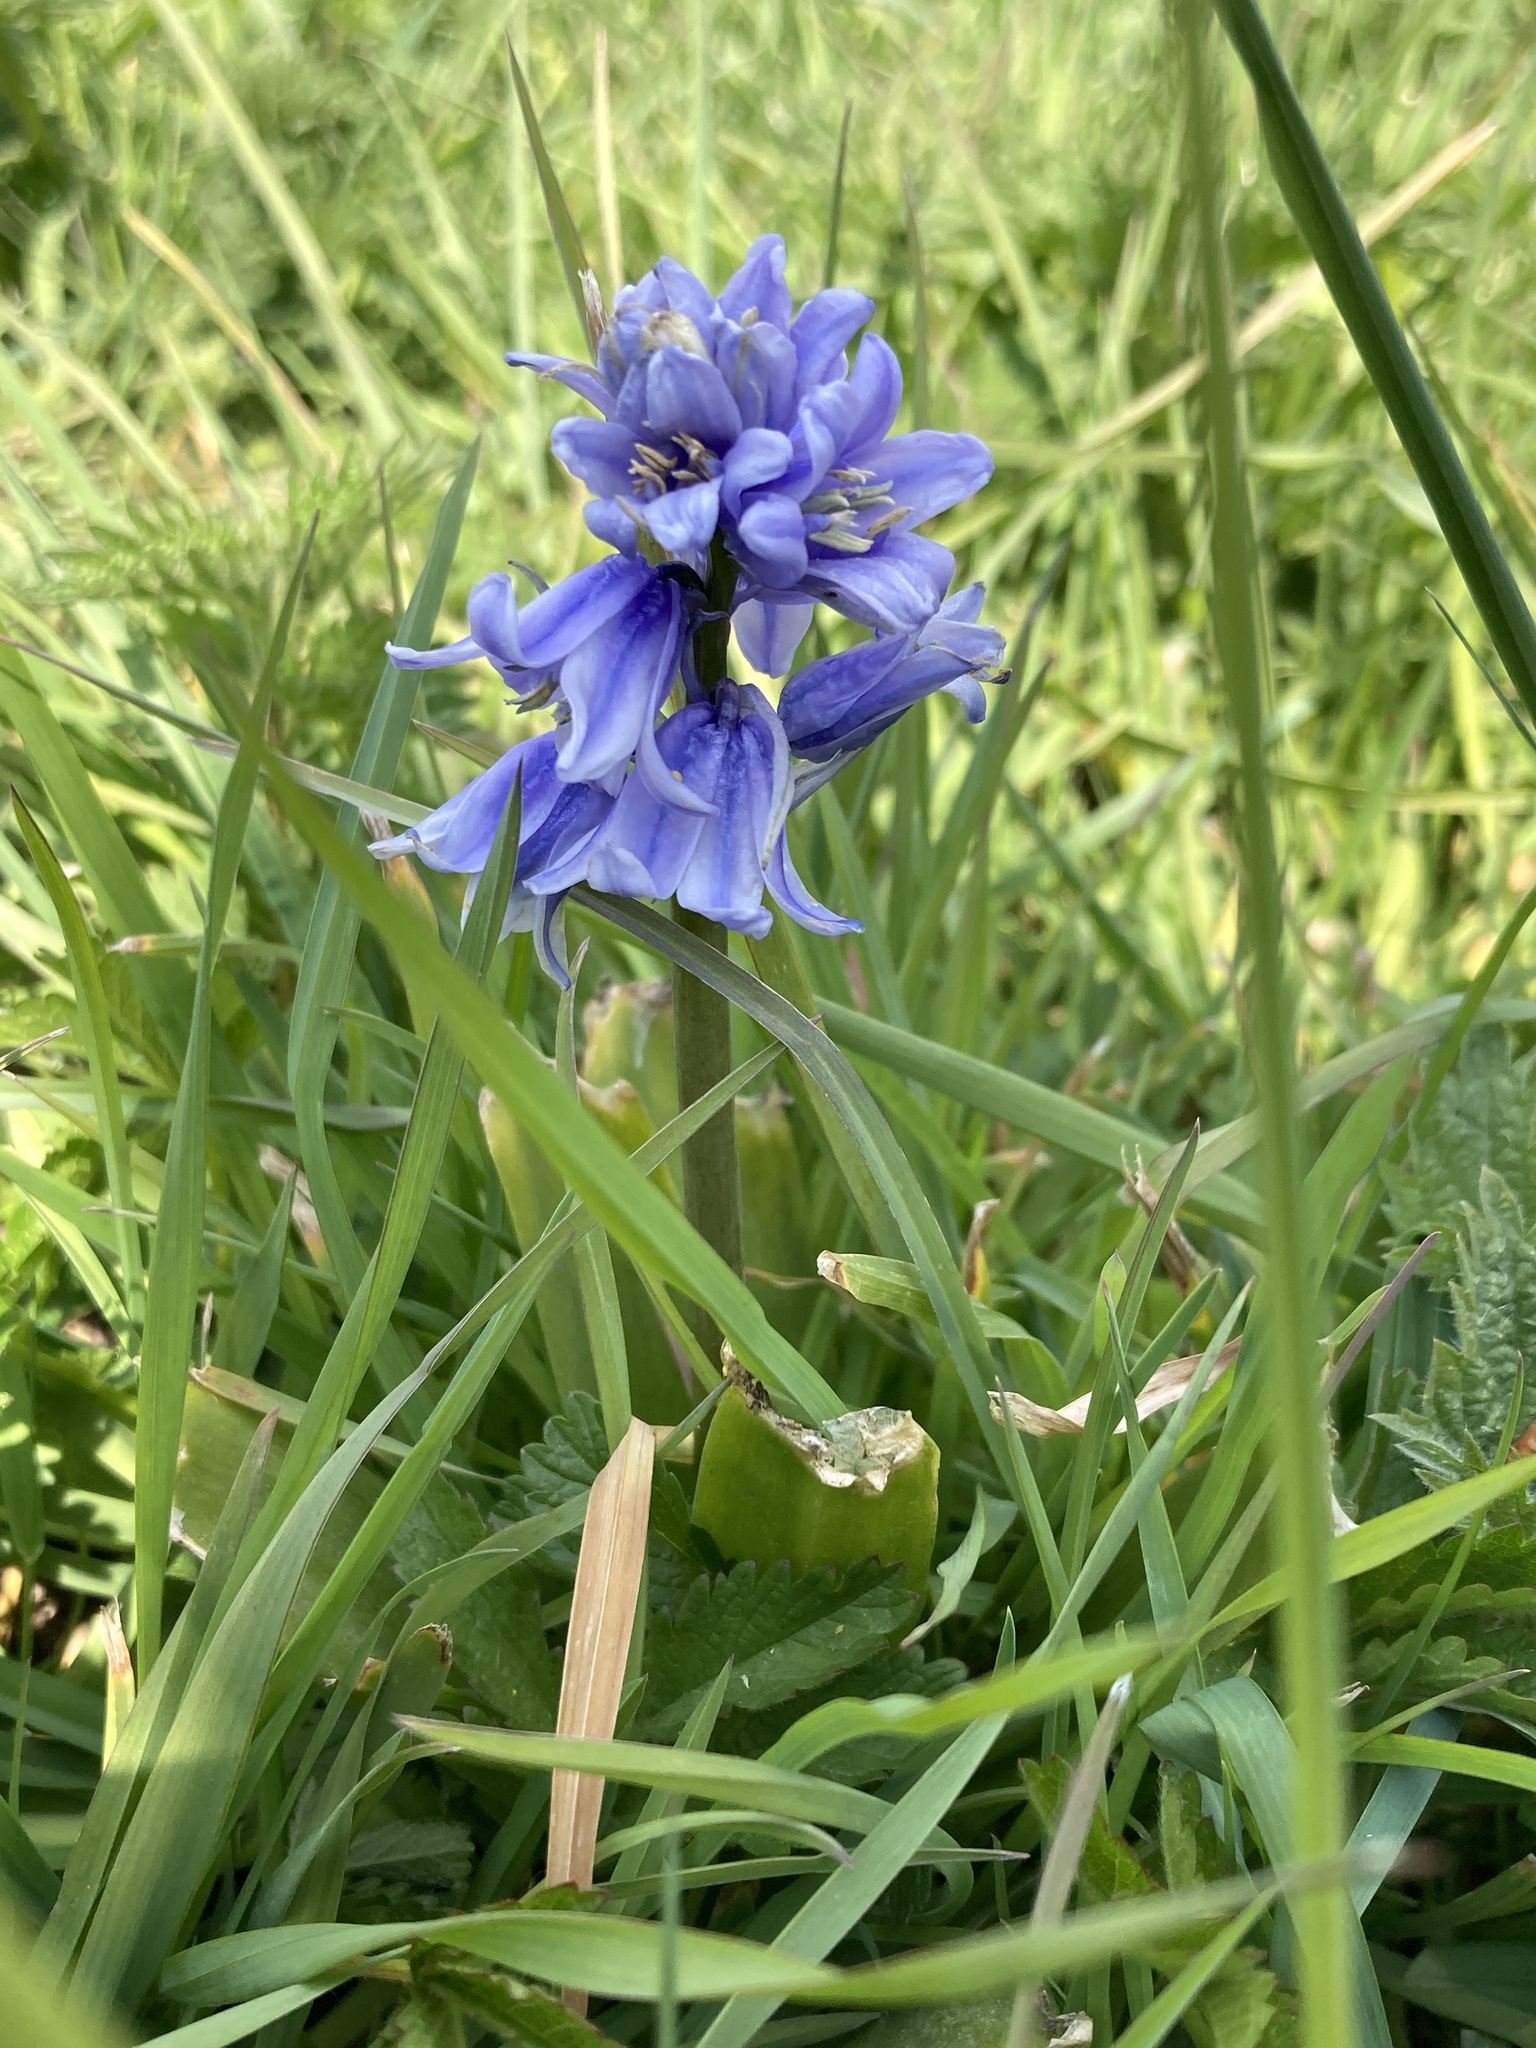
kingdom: Plantae
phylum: Tracheophyta
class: Liliopsida
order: Asparagales
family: Asparagaceae
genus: Hyacinthoides
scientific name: Hyacinthoides hispanica
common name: Spanish bluebell
